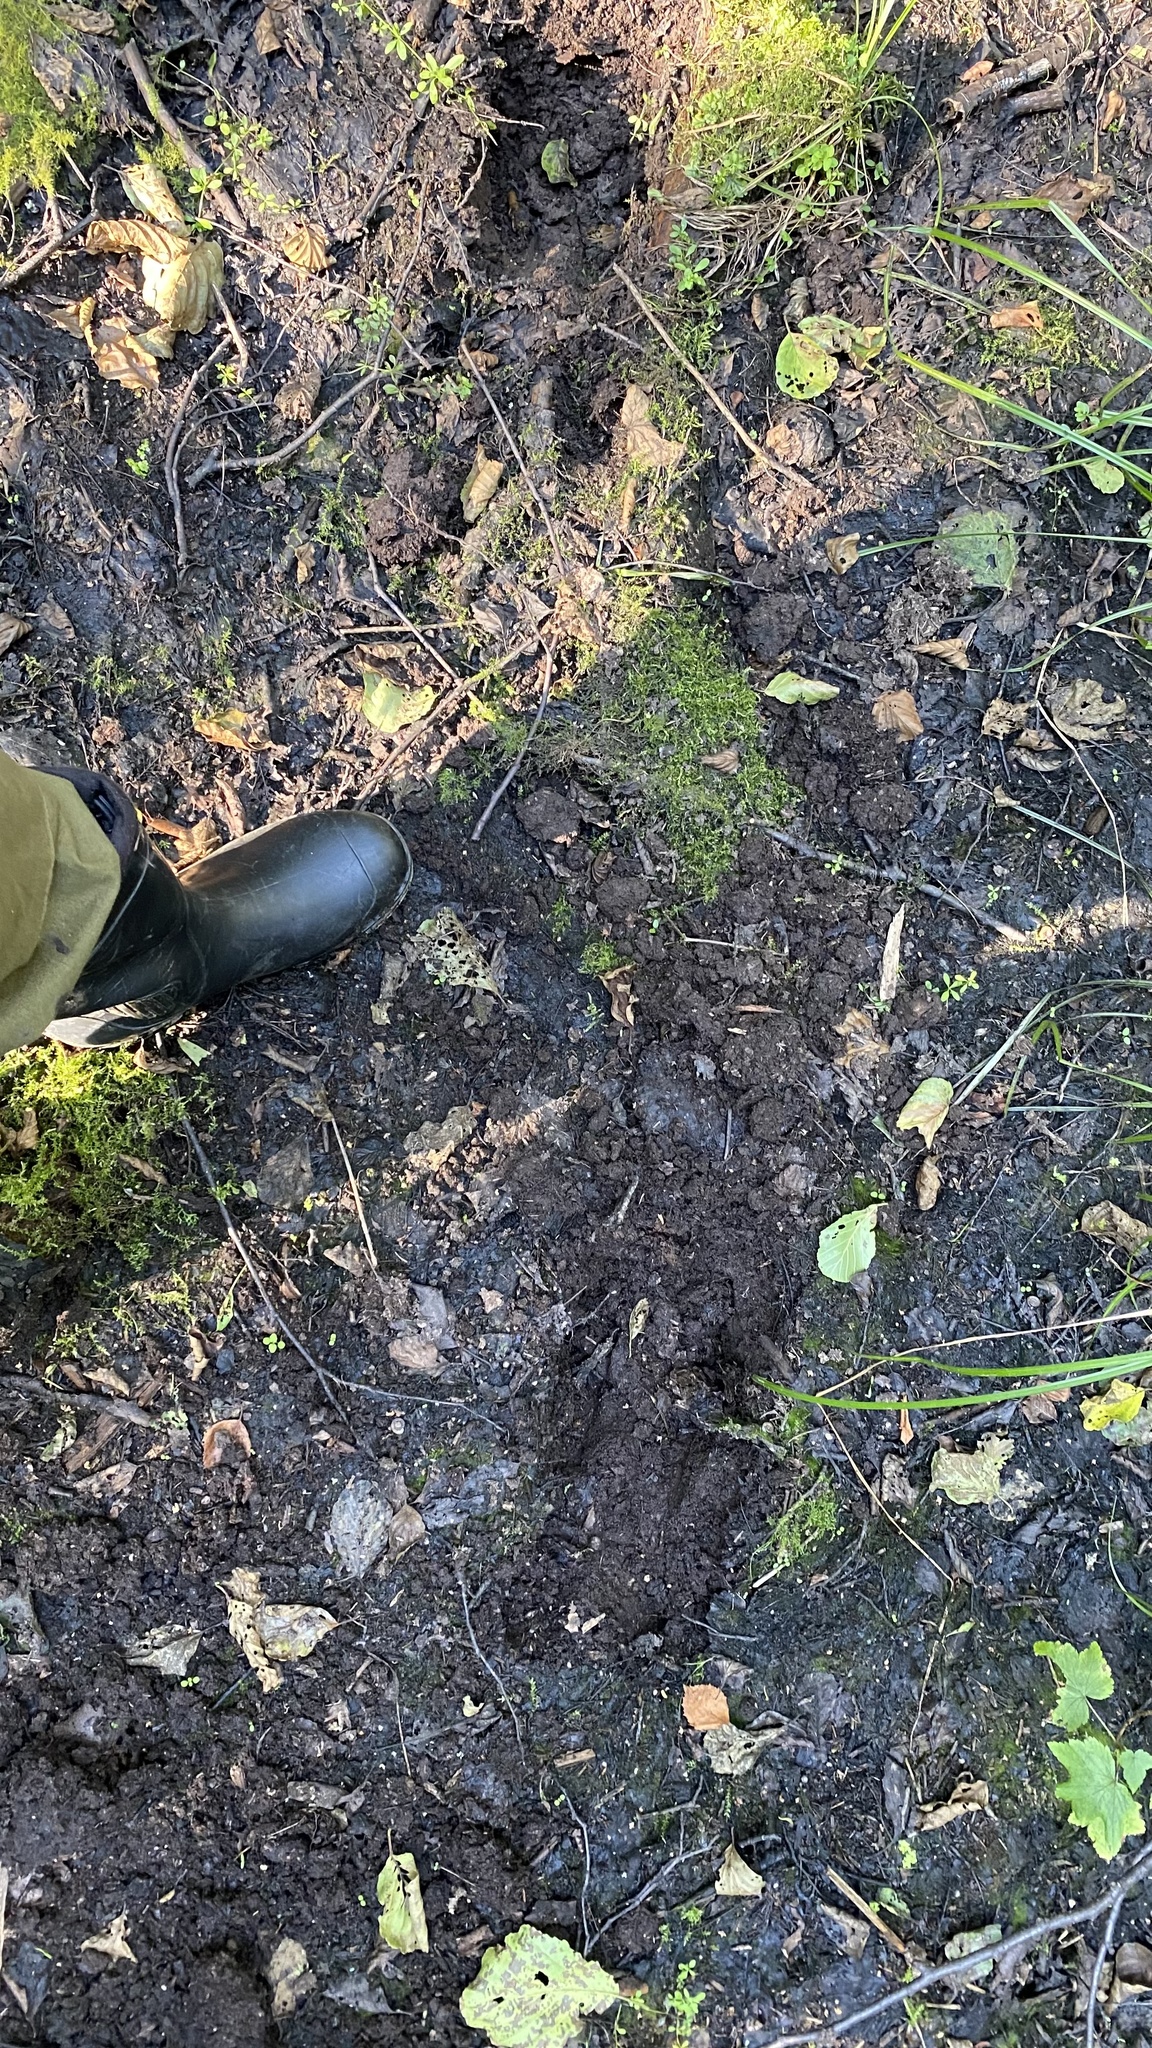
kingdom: Animalia
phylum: Chordata
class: Mammalia
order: Artiodactyla
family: Cervidae
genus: Alces
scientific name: Alces alces
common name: Moose
